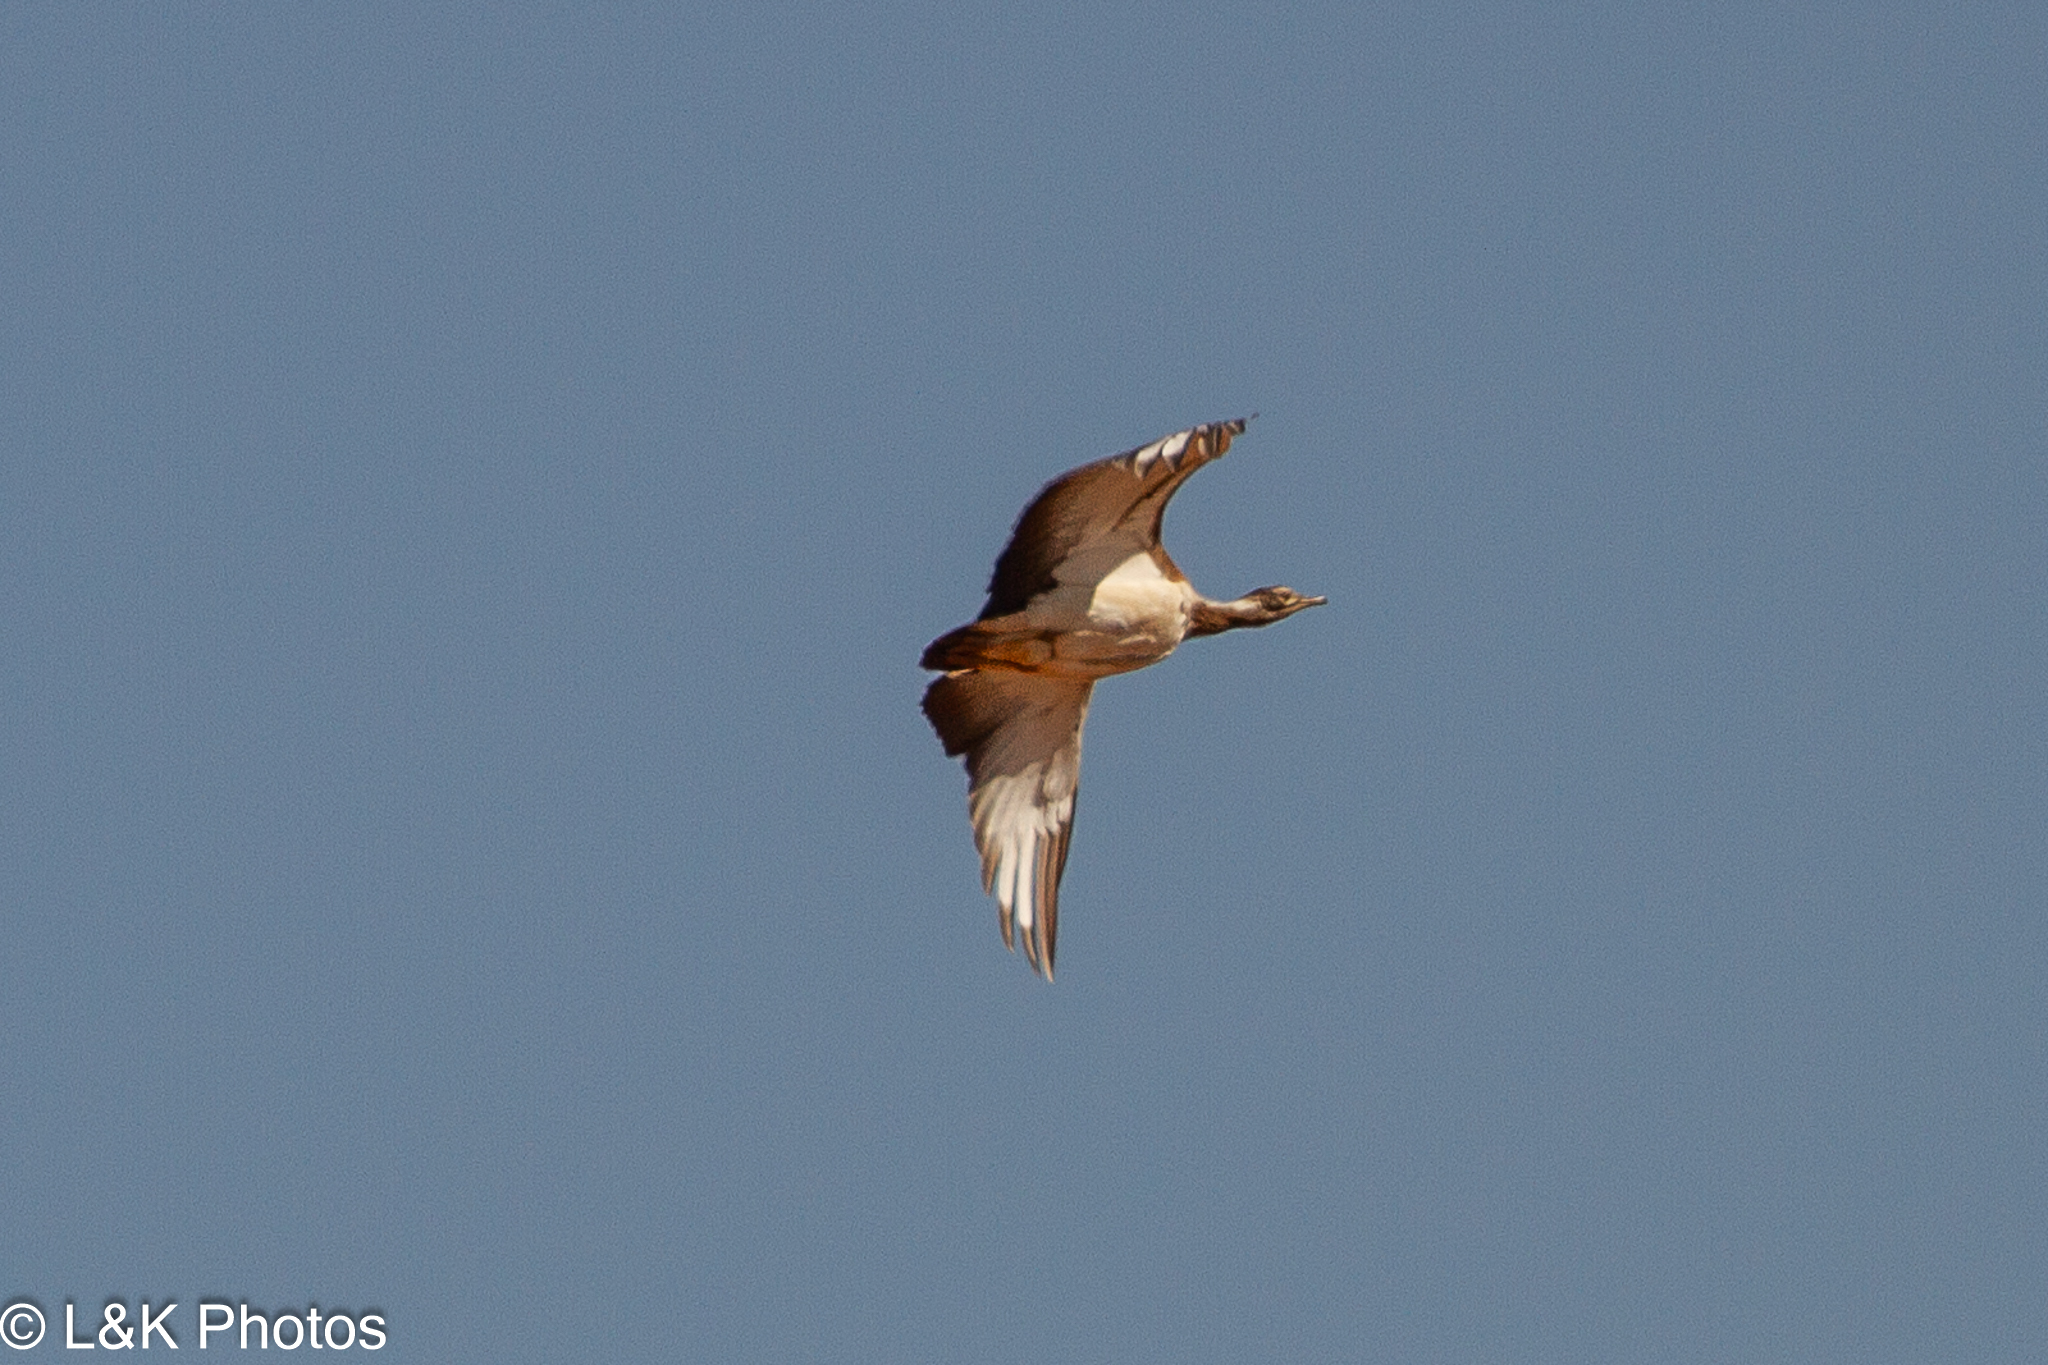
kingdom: Animalia
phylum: Chordata
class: Aves
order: Otidiformes
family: Otididae
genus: Neotis
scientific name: Neotis ludwigii
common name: Ludwig's bustard
